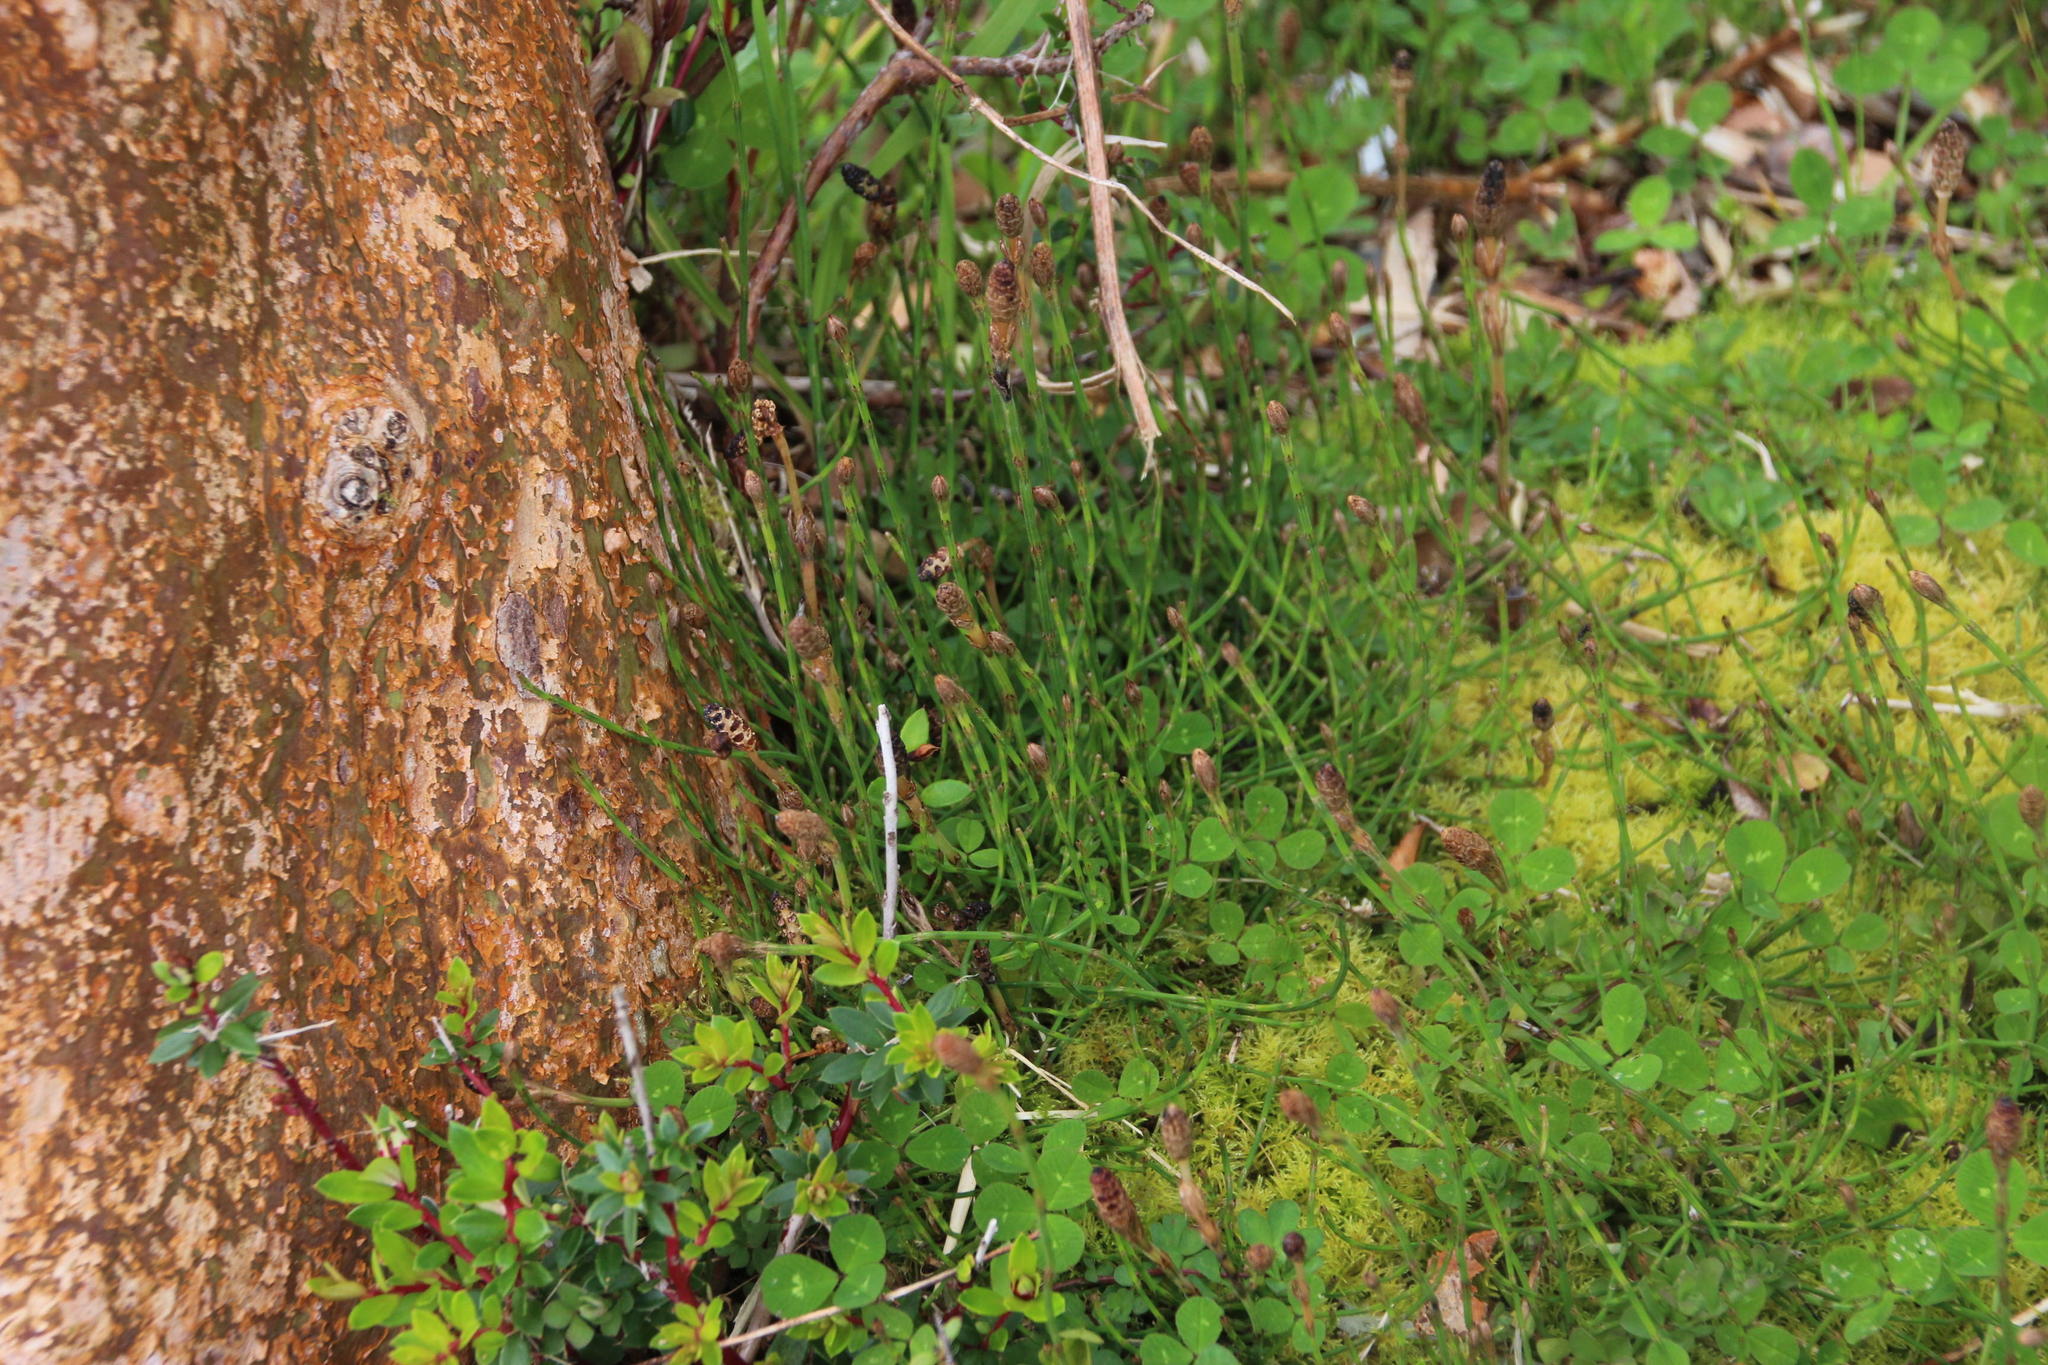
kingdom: Plantae
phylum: Tracheophyta
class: Polypodiopsida
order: Equisetales
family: Equisetaceae
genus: Equisetum
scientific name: Equisetum bogotense
